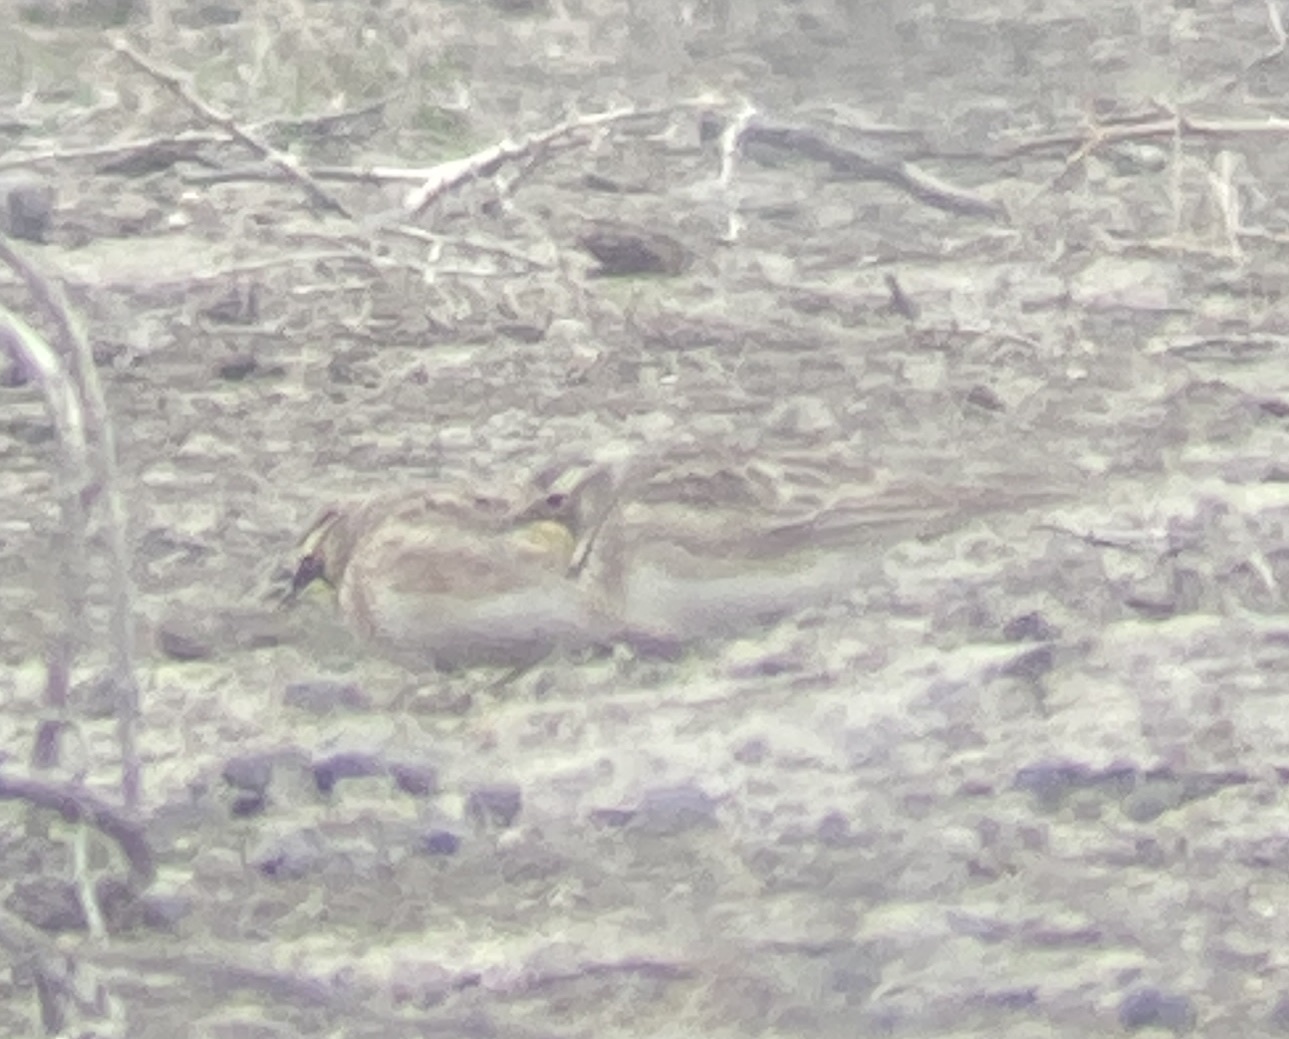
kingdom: Animalia
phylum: Chordata
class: Aves
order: Passeriformes
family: Alaudidae
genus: Eremophila
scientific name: Eremophila alpestris
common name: Horned lark
